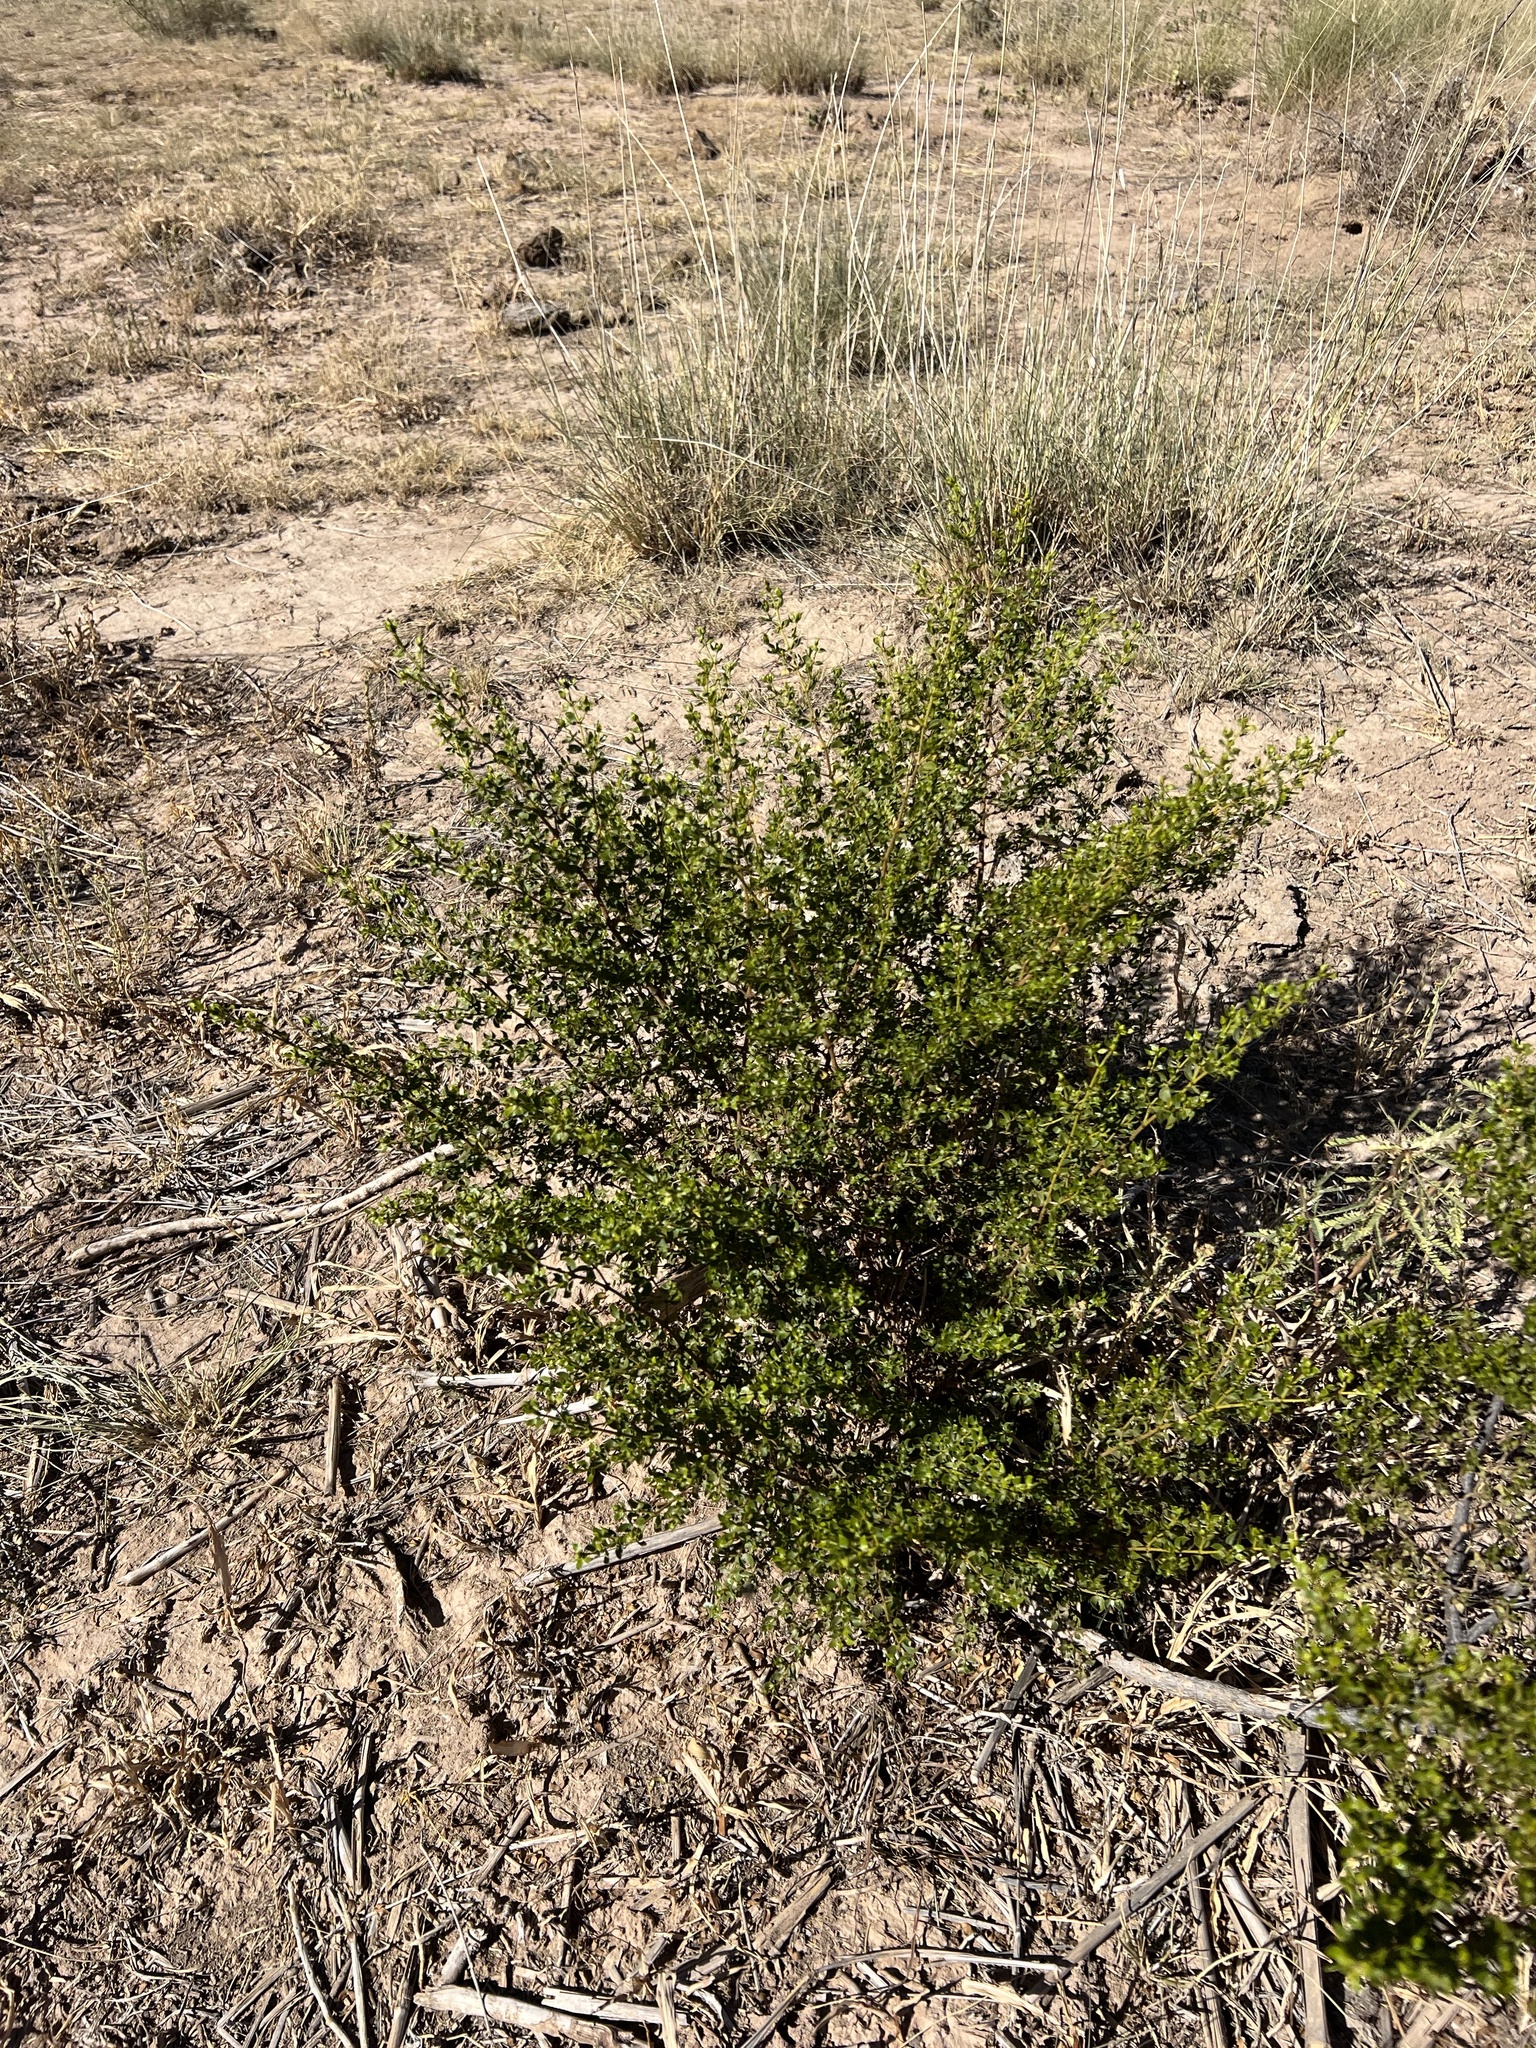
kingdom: Plantae
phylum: Tracheophyta
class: Magnoliopsida
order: Zygophyllales
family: Zygophyllaceae
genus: Larrea
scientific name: Larrea tridentata
